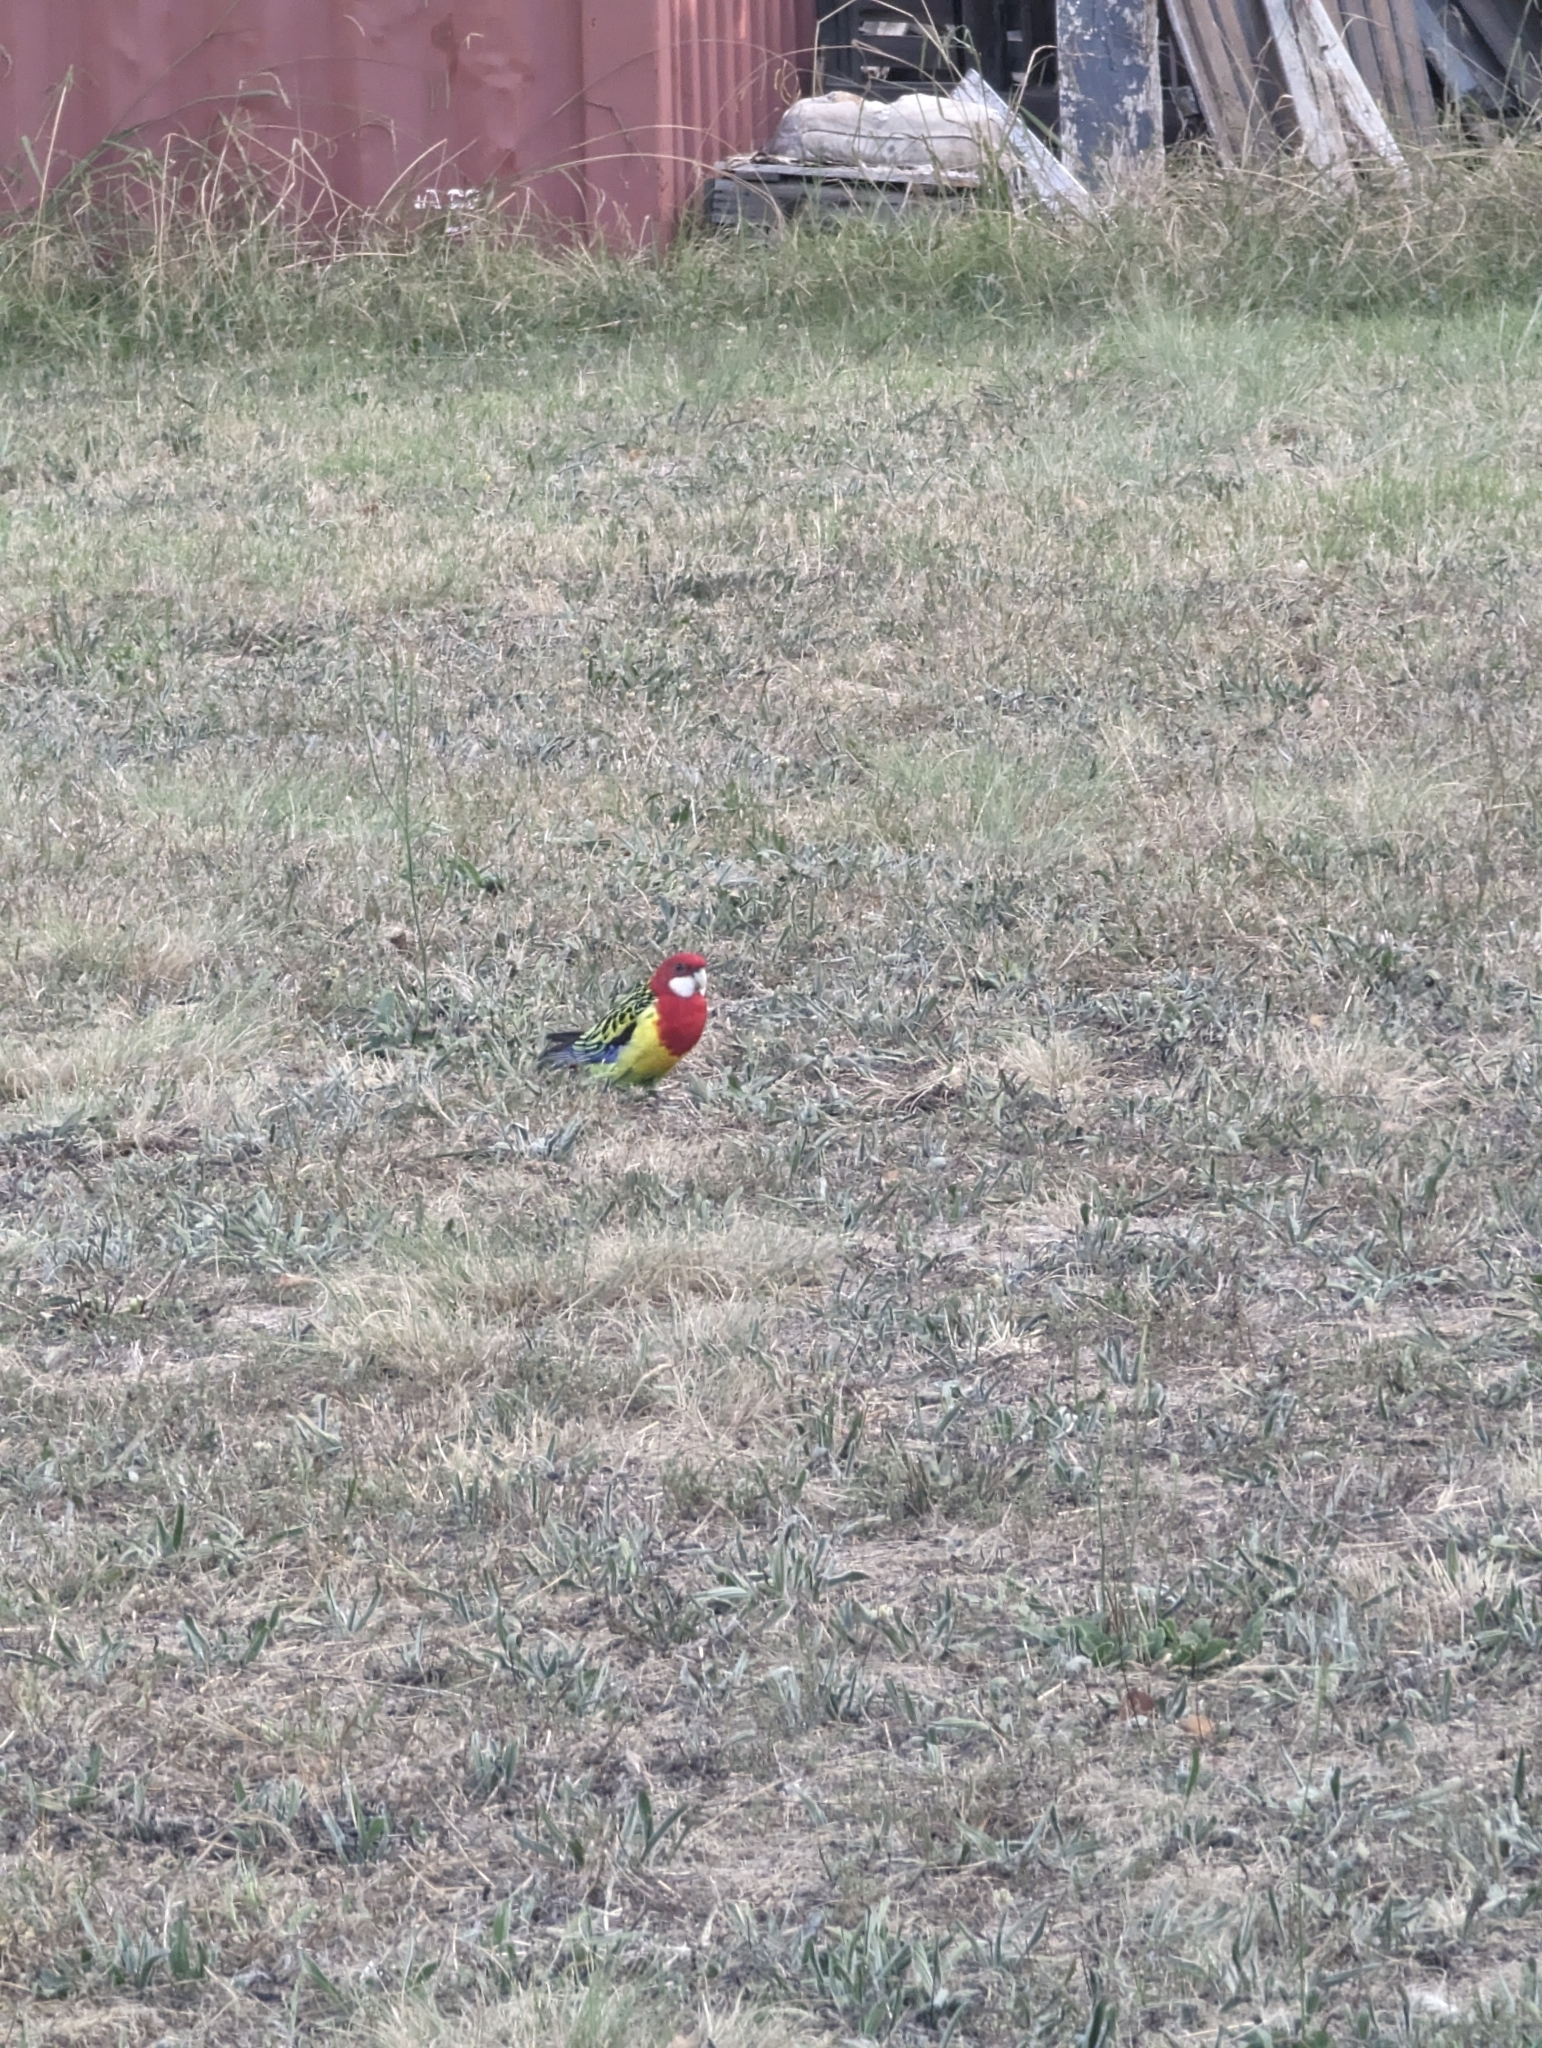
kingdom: Animalia
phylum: Chordata
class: Aves
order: Psittaciformes
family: Psittacidae
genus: Platycercus
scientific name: Platycercus eximius
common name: Eastern rosella
